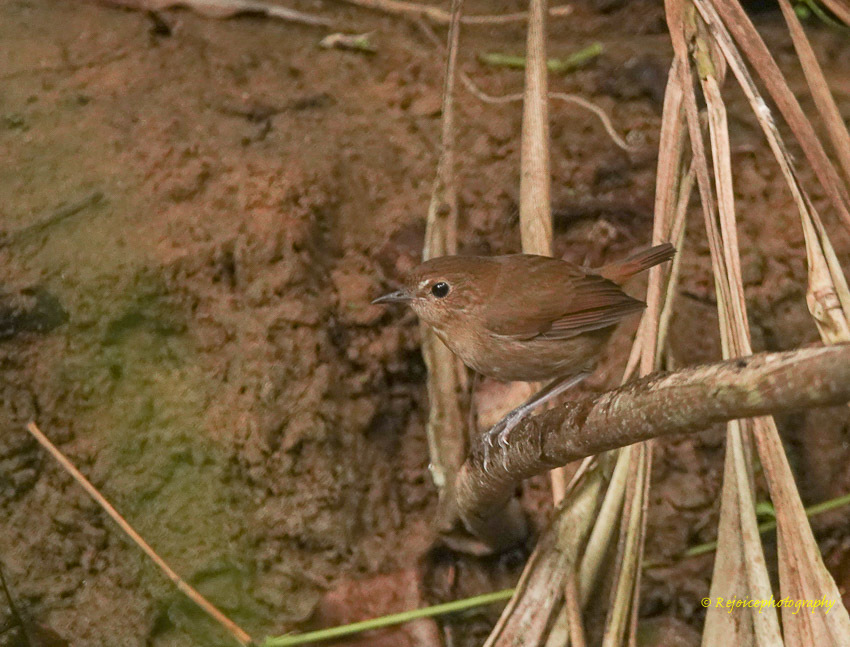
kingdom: Animalia
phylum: Chordata
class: Aves
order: Passeriformes
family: Muscicapidae
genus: Brachypteryx
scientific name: Brachypteryx leucophris
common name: Lesser shortwing
